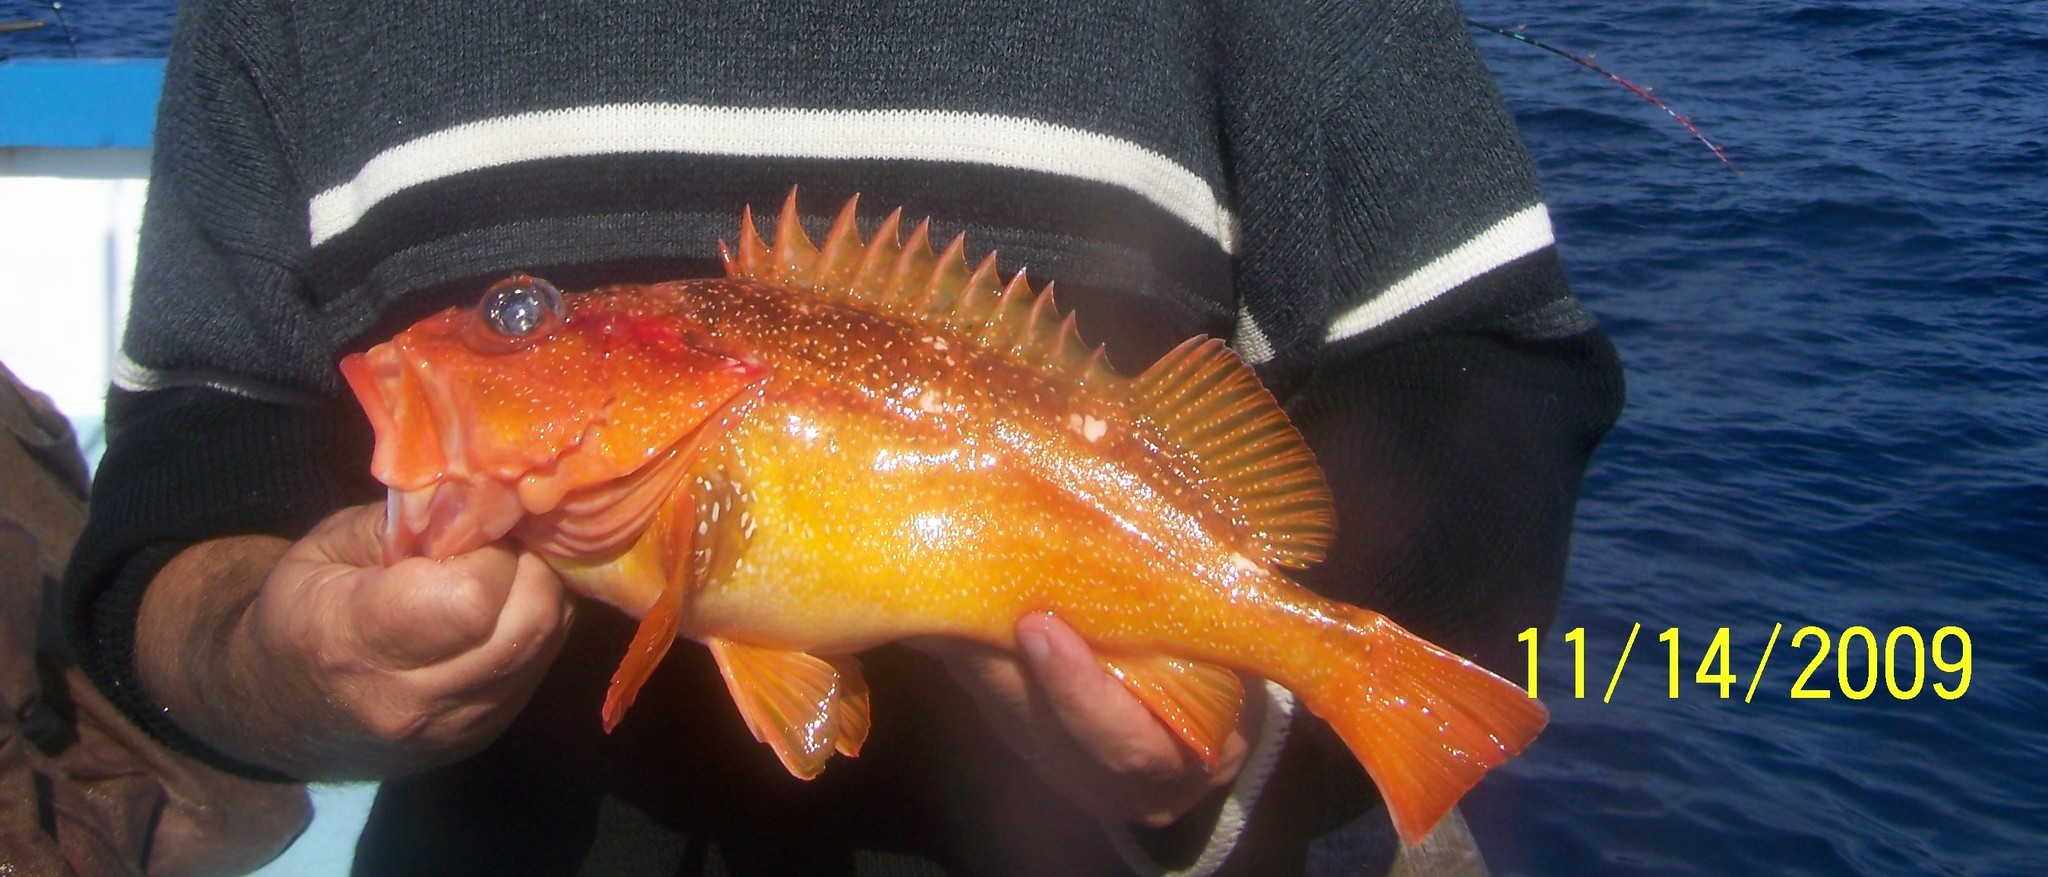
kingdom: Animalia
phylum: Chordata
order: Scorpaeniformes
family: Sebastidae
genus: Sebastes
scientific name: Sebastes constellatus
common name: Starry rockfish
